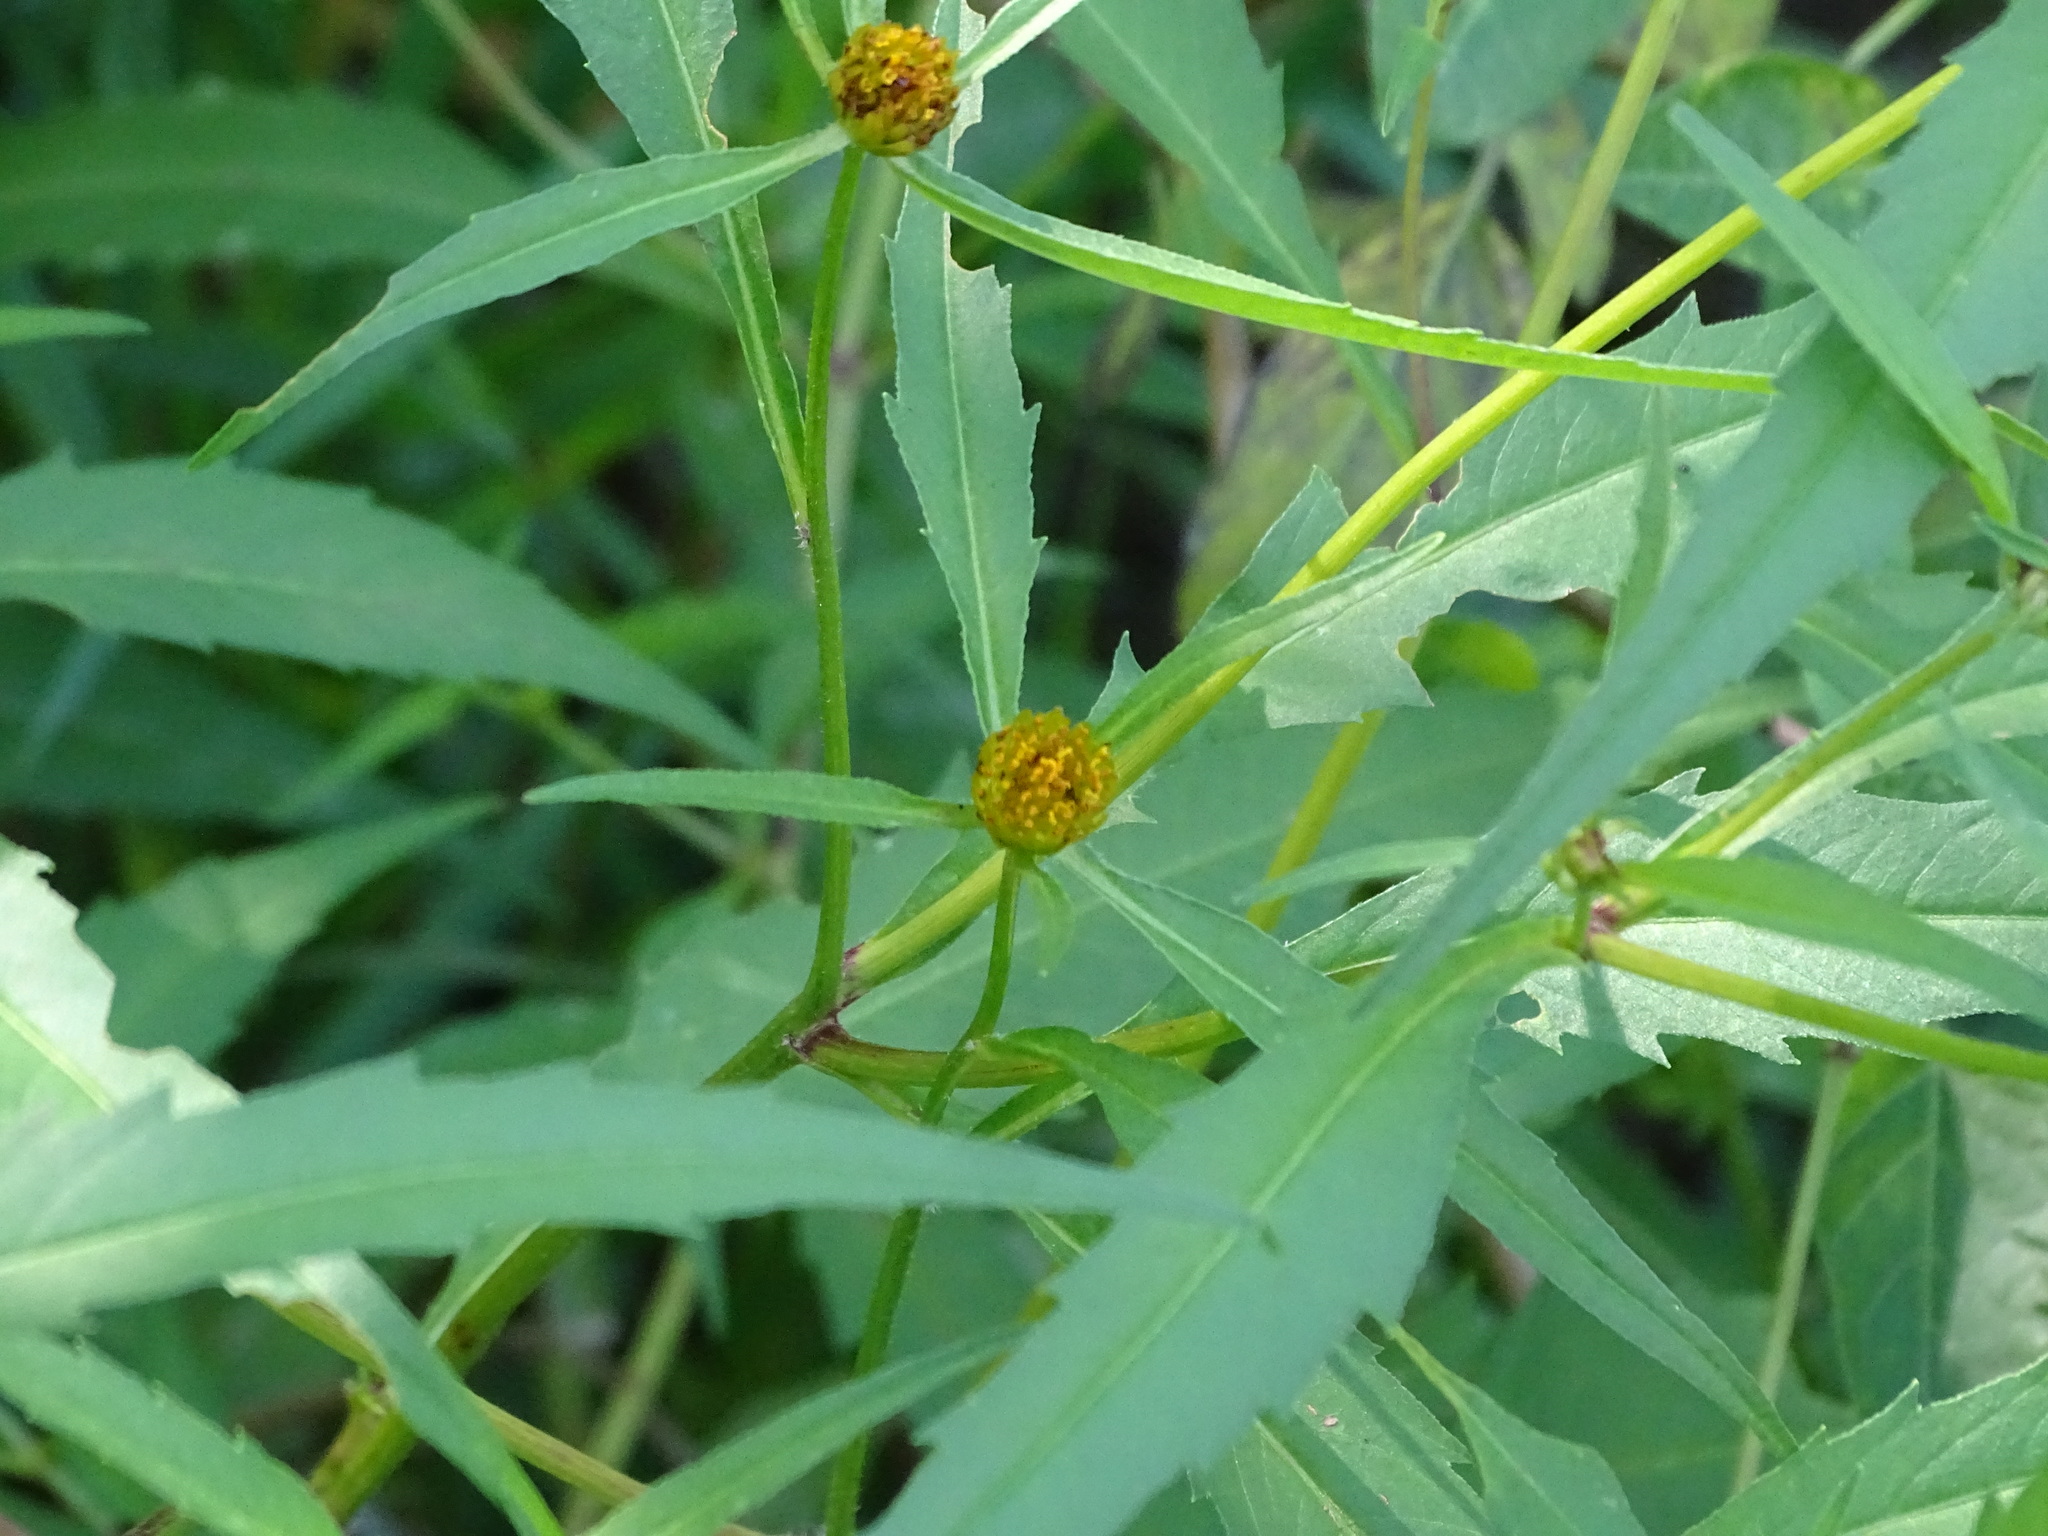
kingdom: Plantae
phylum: Tracheophyta
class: Magnoliopsida
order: Asterales
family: Asteraceae
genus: Bidens
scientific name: Bidens connata
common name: London bur-marigold
